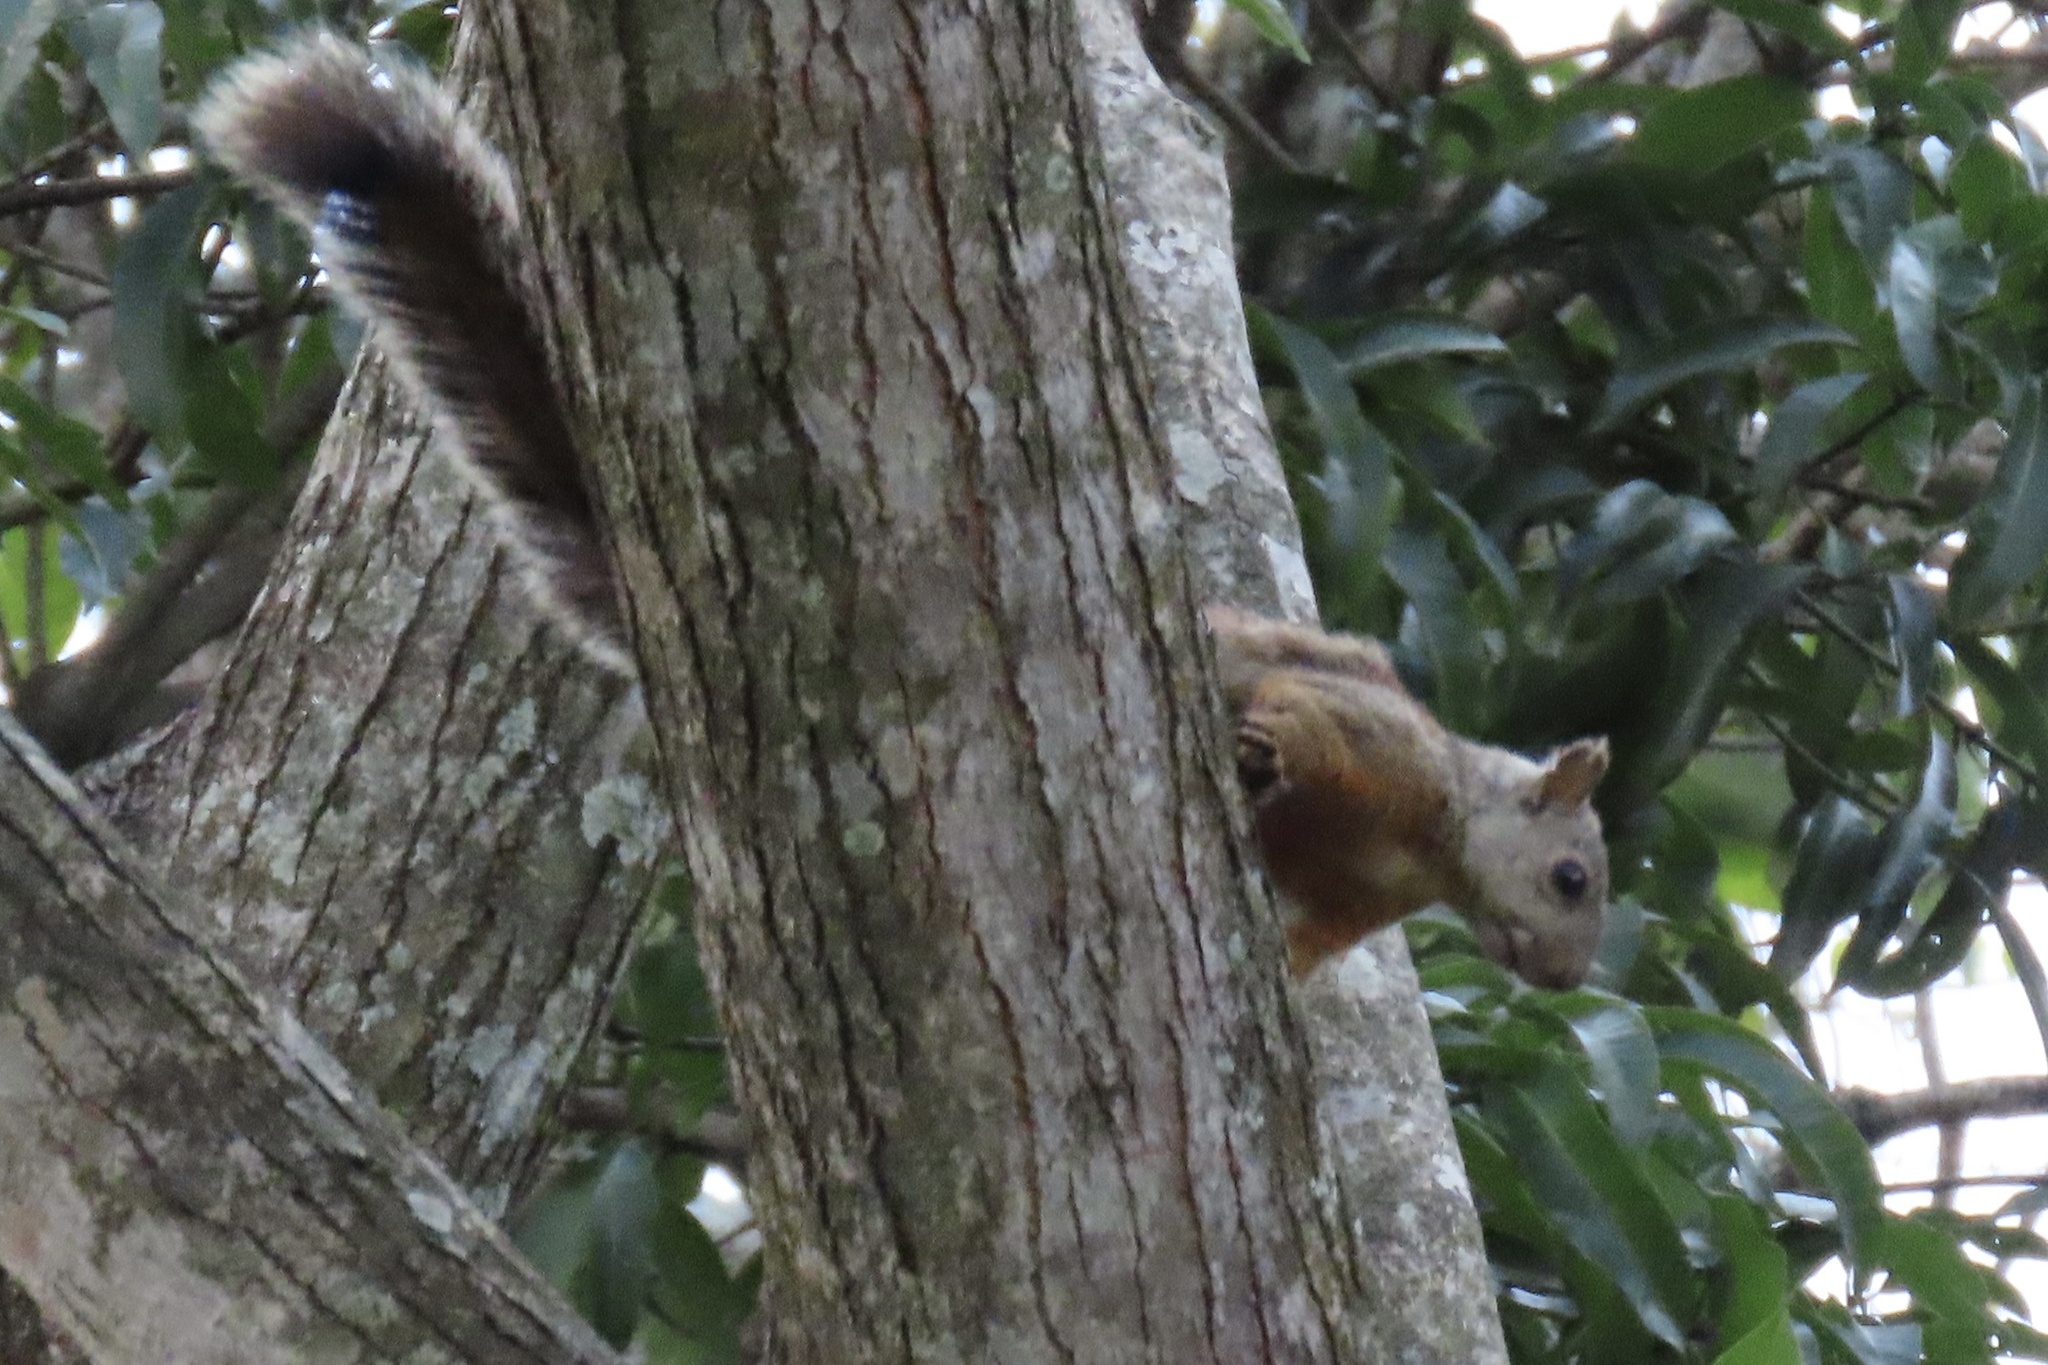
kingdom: Animalia
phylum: Chordata
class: Mammalia
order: Rodentia
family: Sciuridae
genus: Sciurus
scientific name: Sciurus variegatoides
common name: Variegated squirrel
